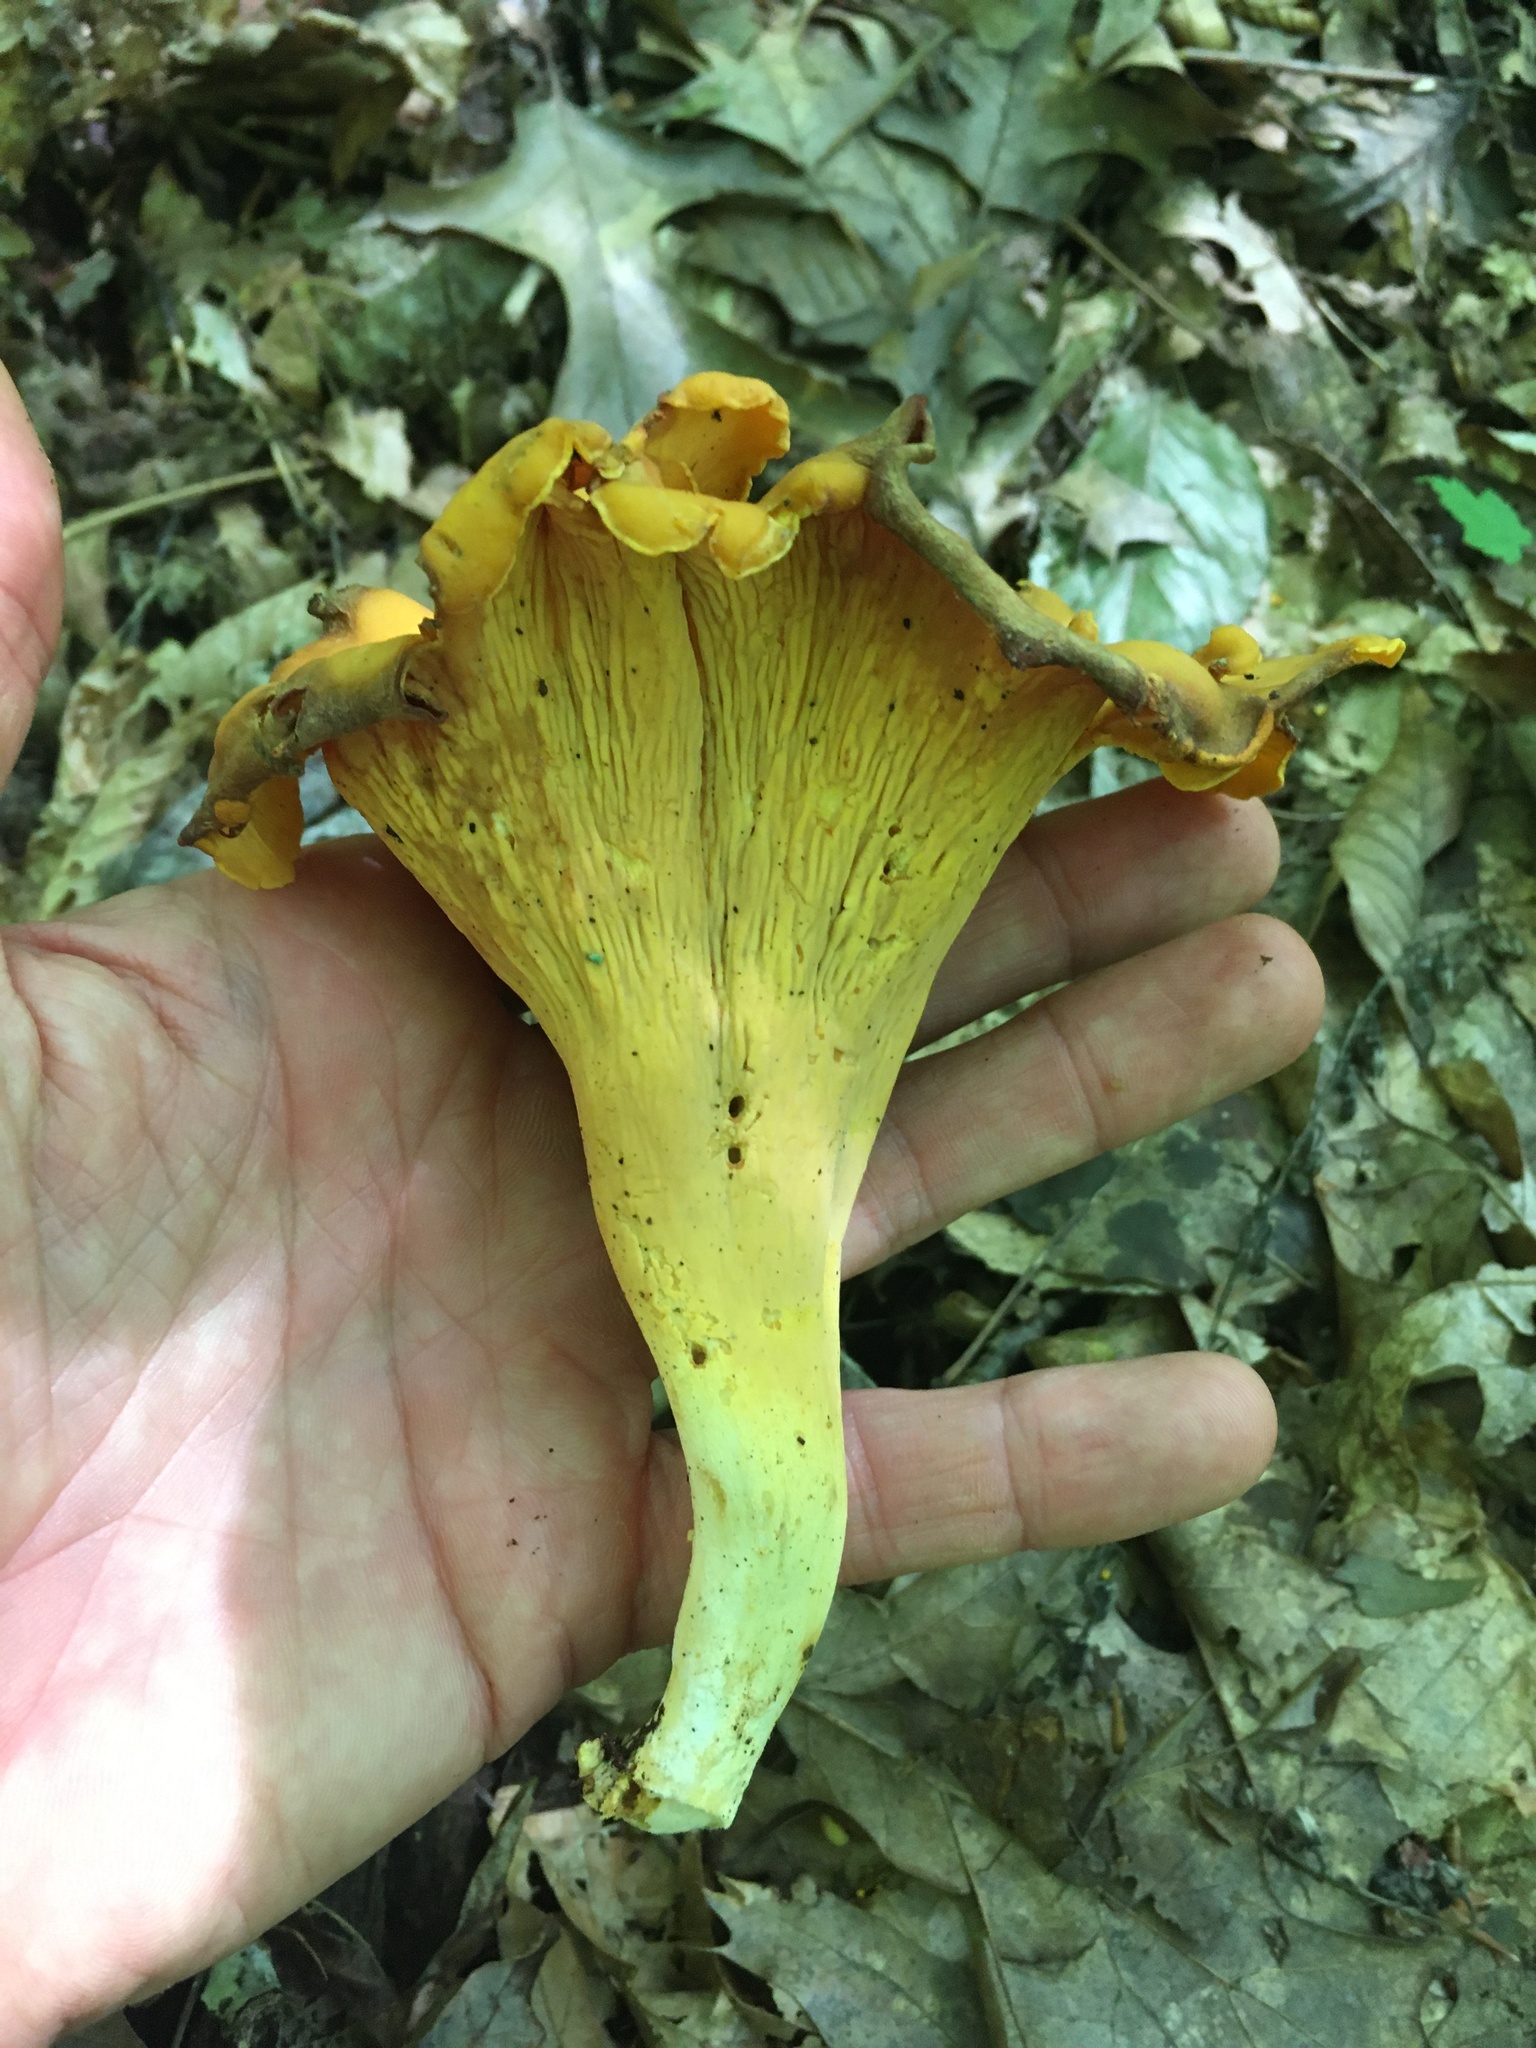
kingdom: Fungi
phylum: Basidiomycota
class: Agaricomycetes
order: Cantharellales
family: Hydnaceae
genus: Cantharellus
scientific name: Cantharellus lateritius
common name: Smooth chanterelle
